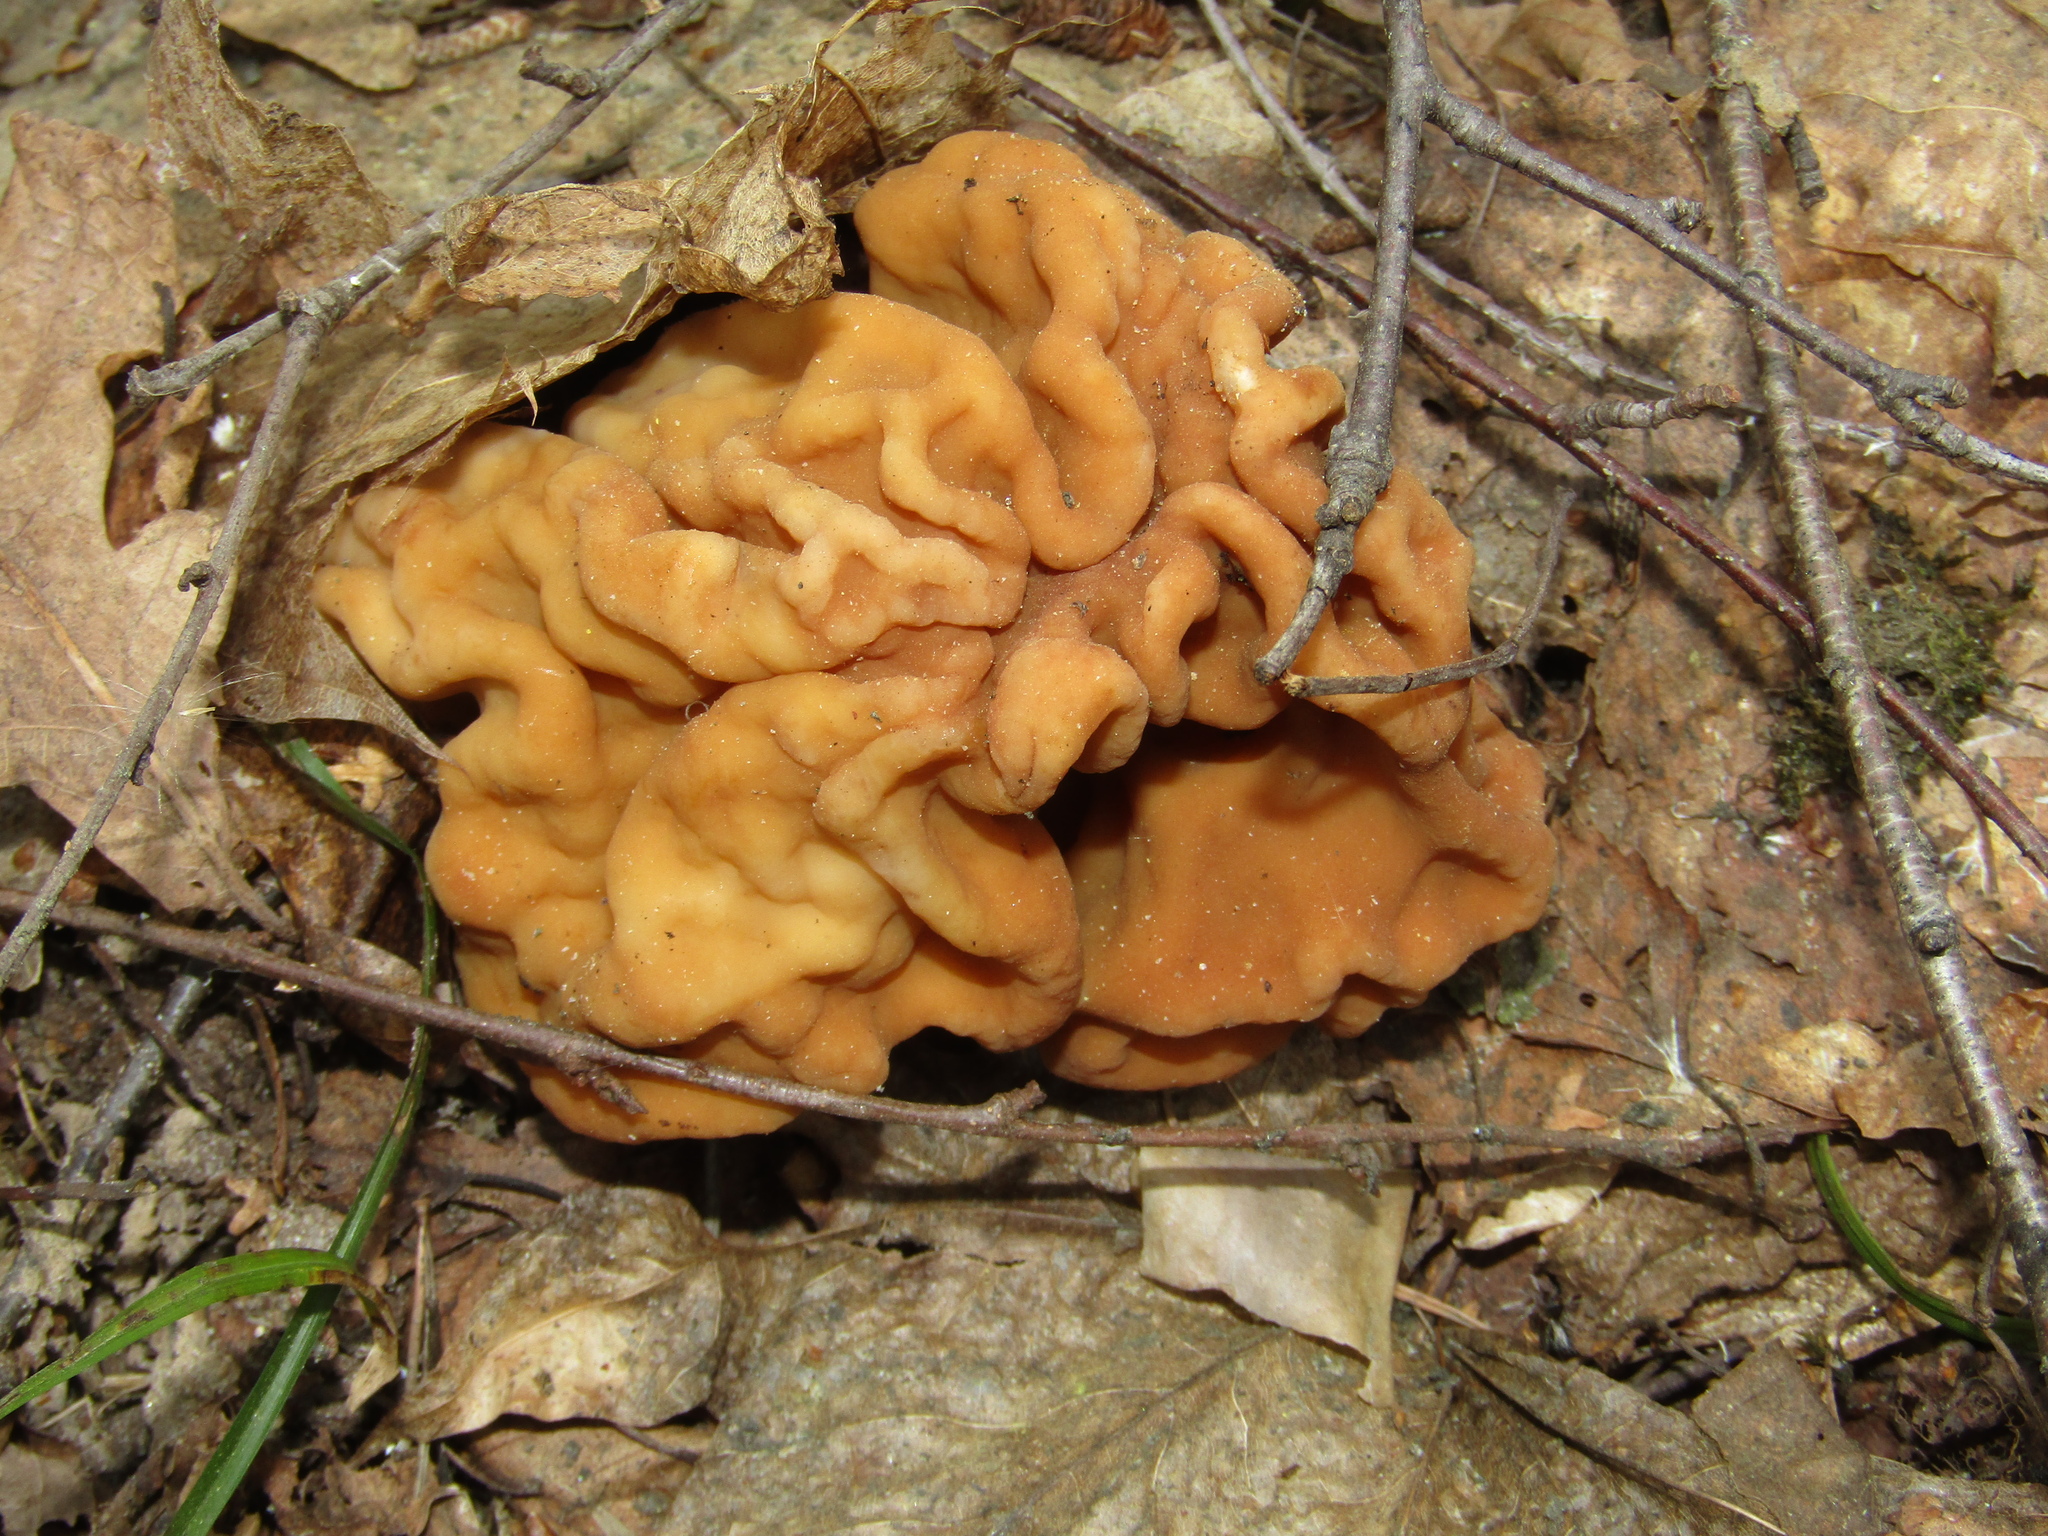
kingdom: Fungi
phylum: Ascomycota
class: Pezizomycetes
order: Pezizales
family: Discinaceae
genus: Gyromitra
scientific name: Gyromitra gigas
